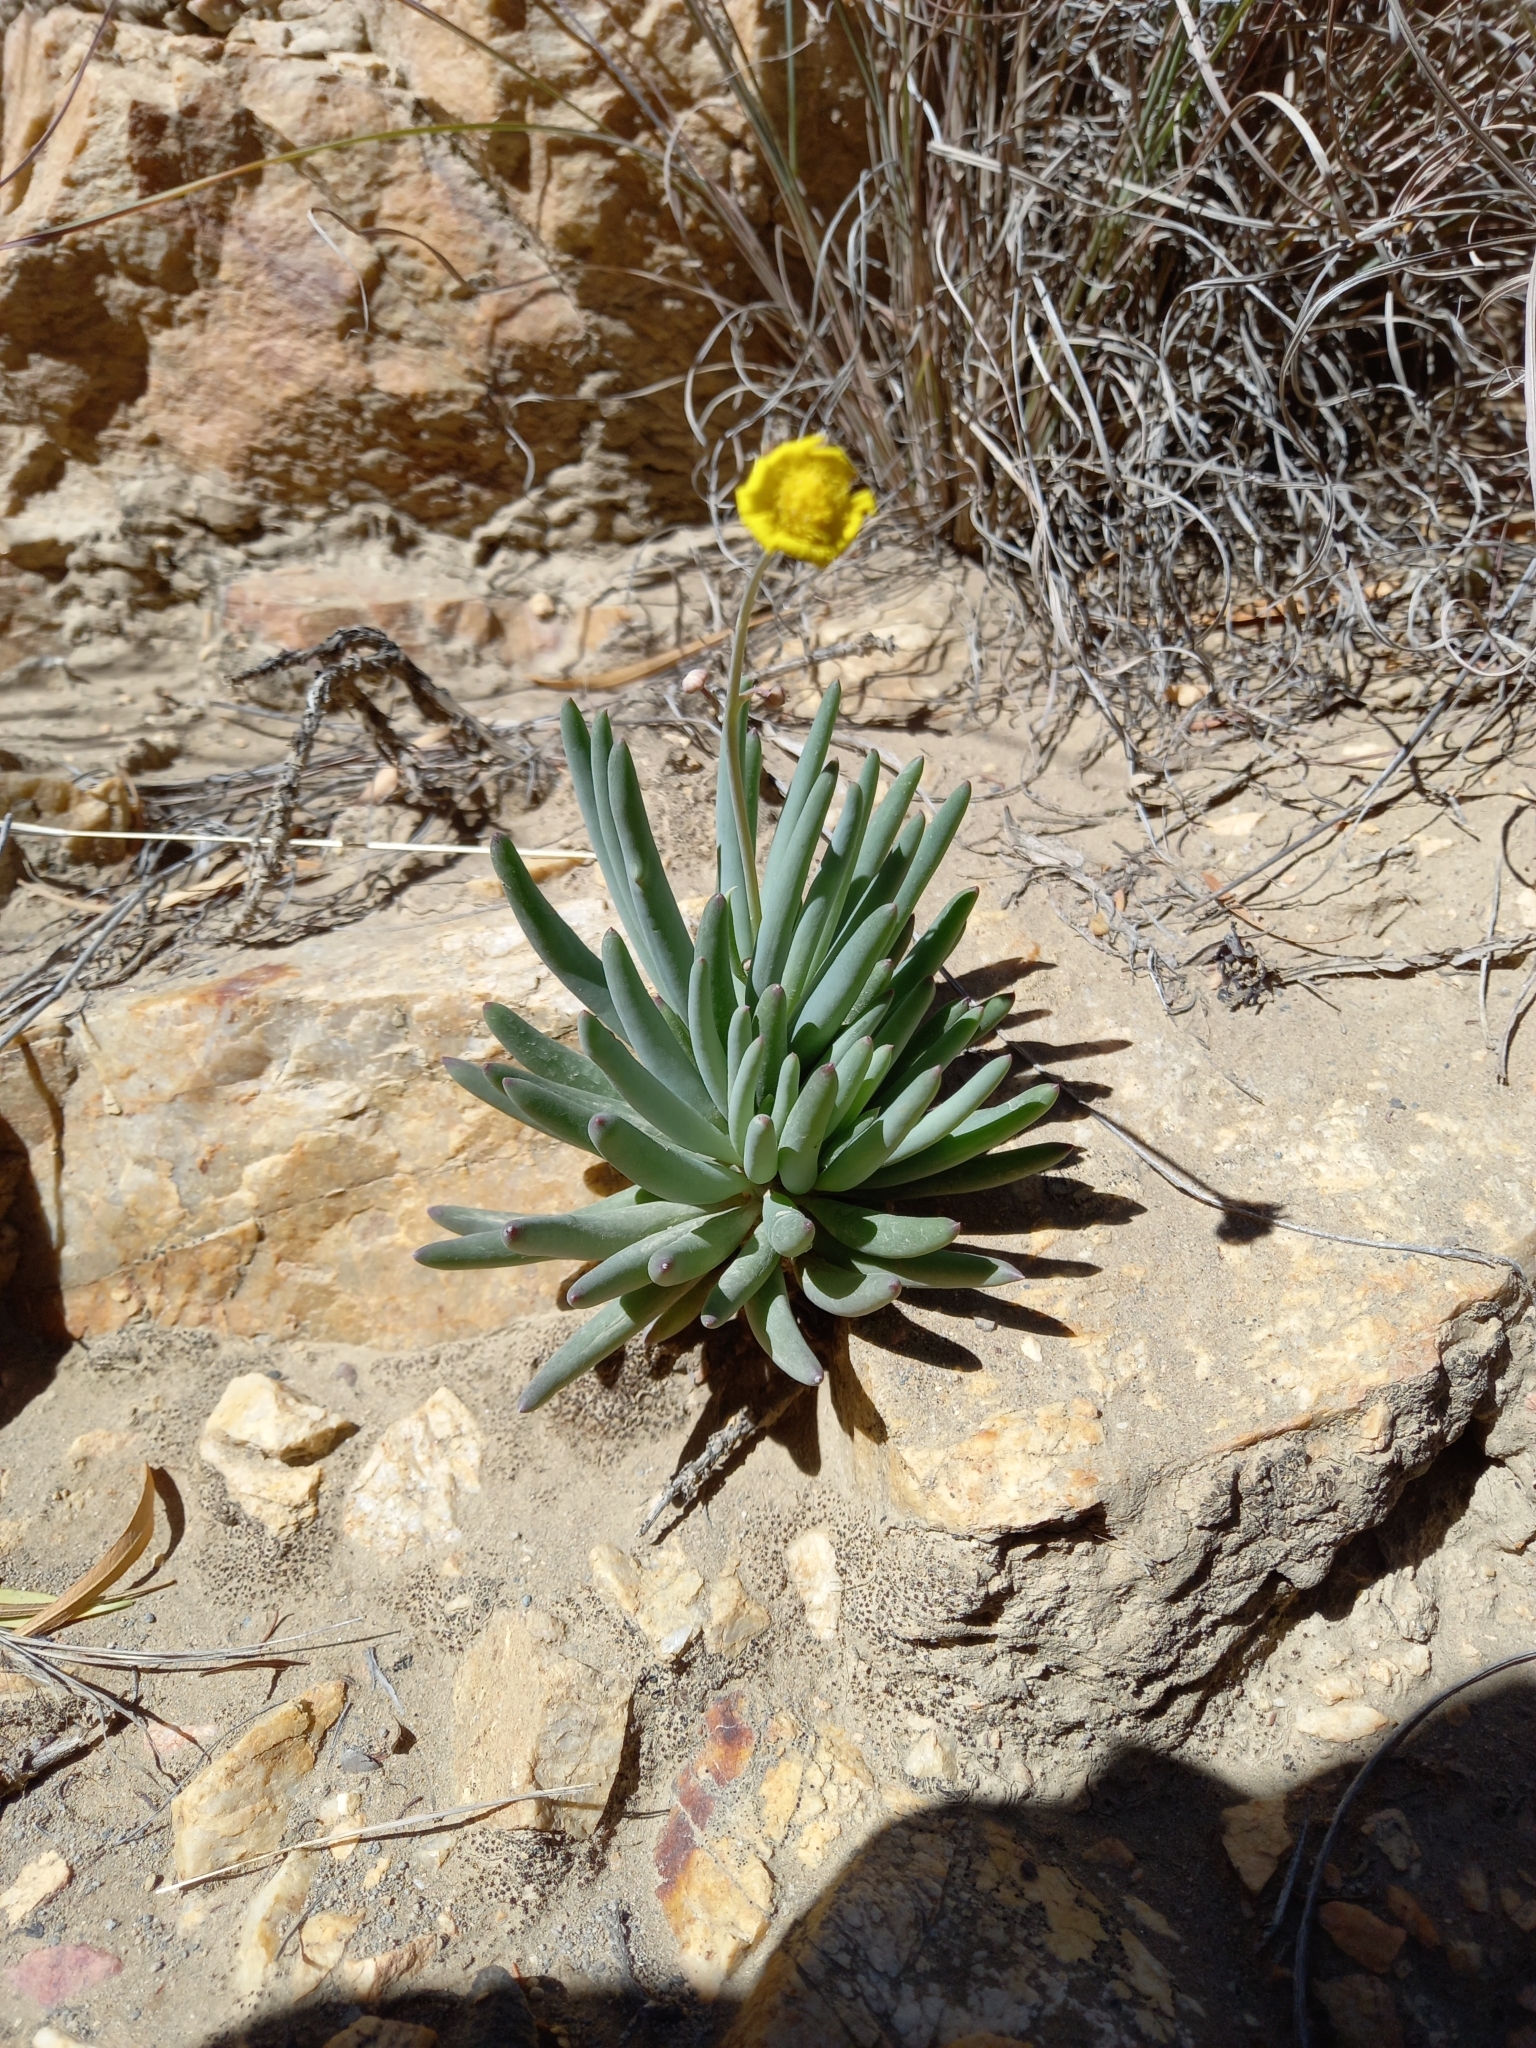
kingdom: Plantae
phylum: Tracheophyta
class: Magnoliopsida
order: Asterales
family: Asteraceae
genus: Crassothonna
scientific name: Crassothonna cacalioides
